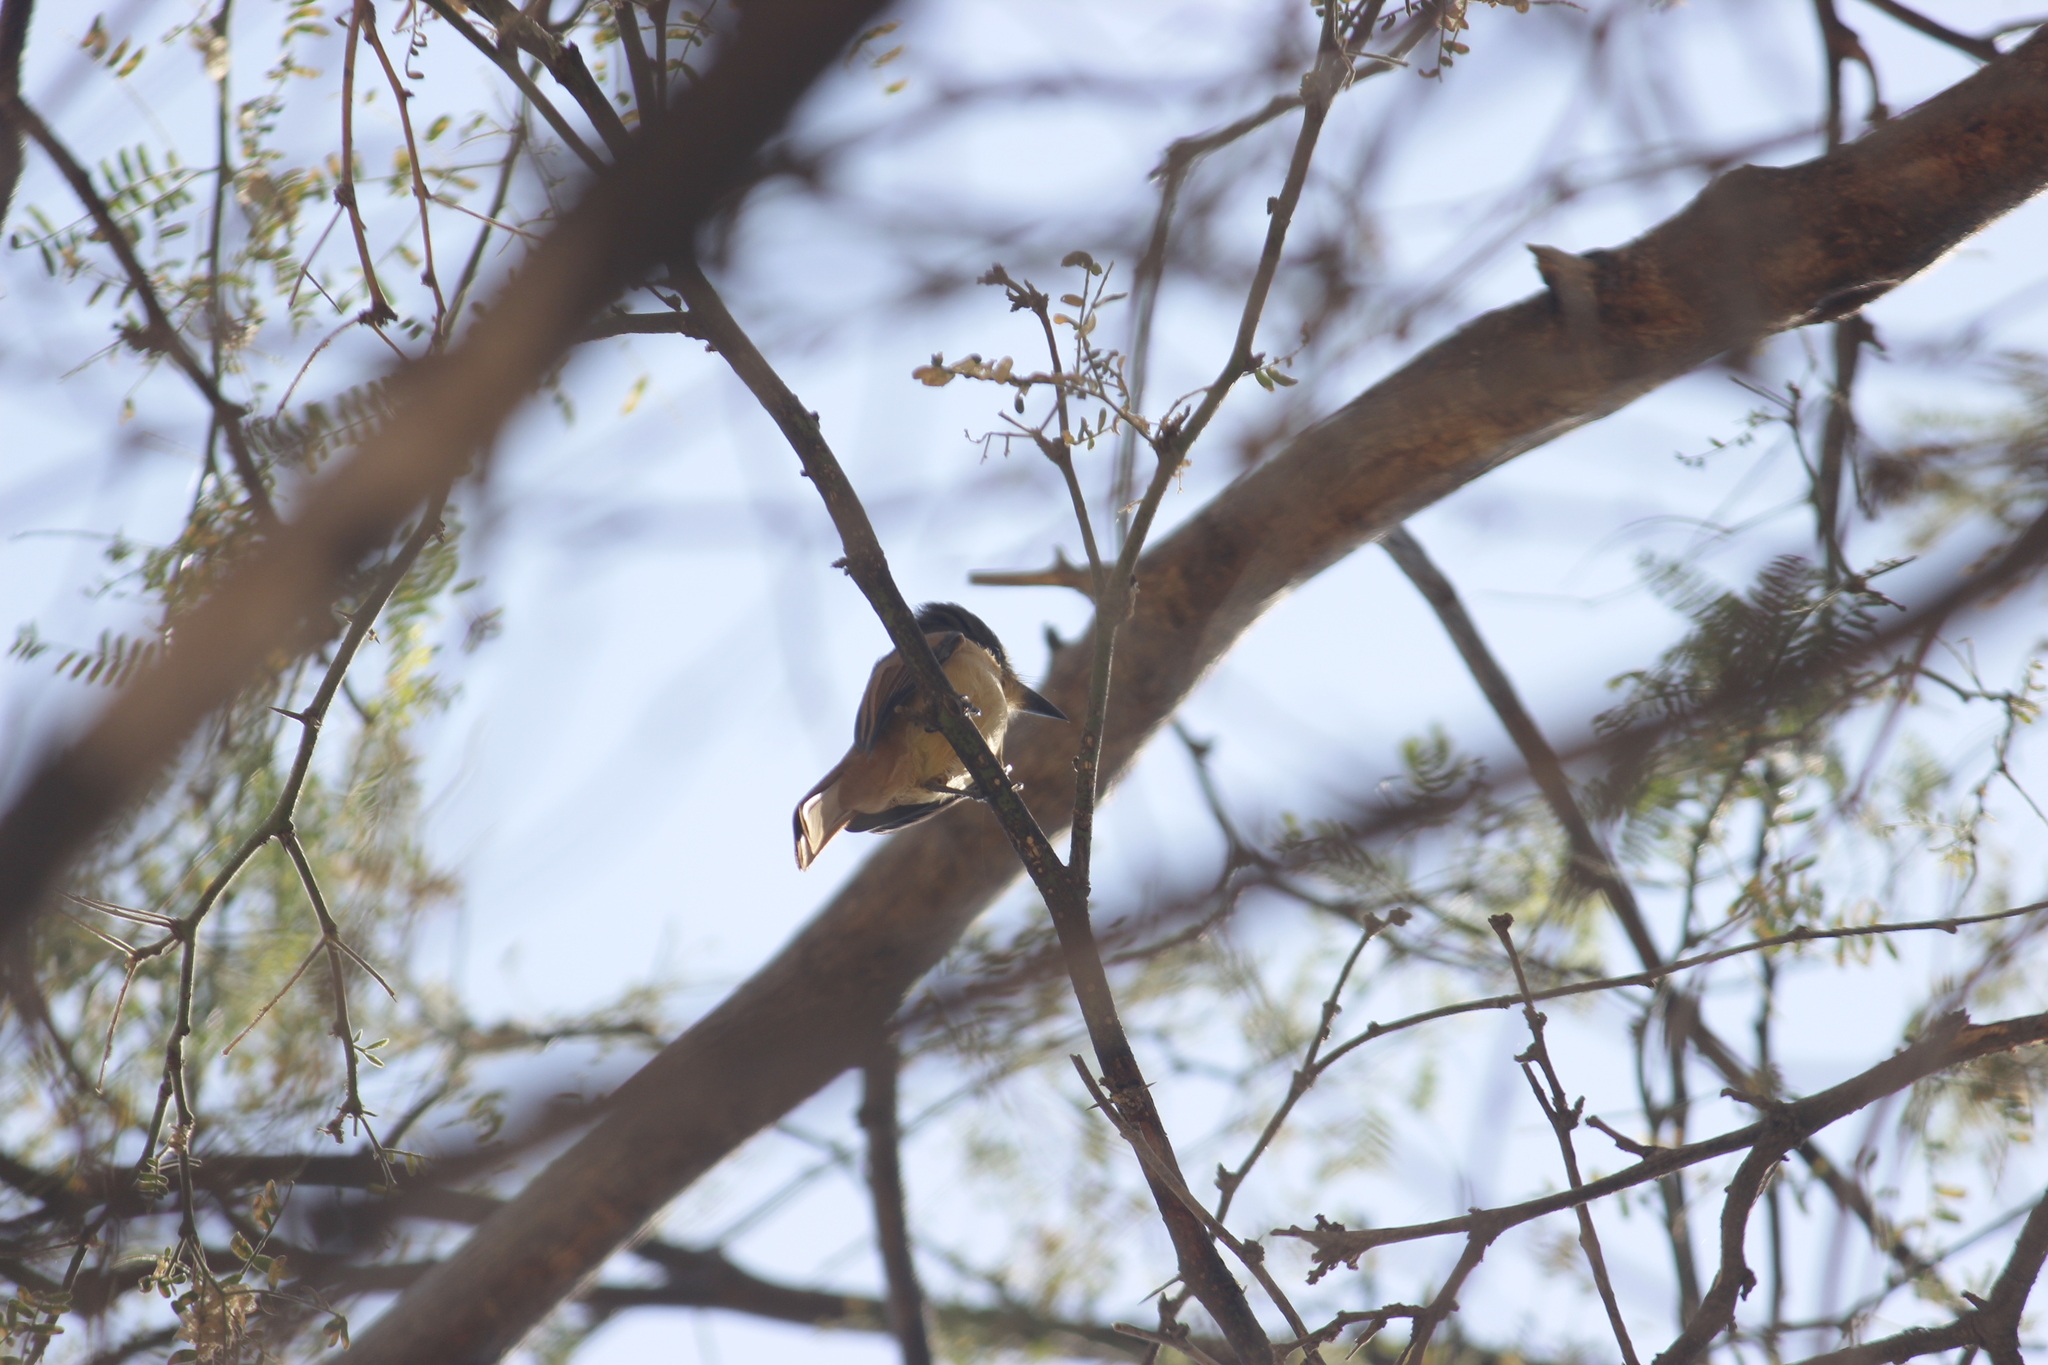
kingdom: Animalia
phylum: Chordata
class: Aves
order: Passeriformes
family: Tyrannidae
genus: Myiarchus
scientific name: Myiarchus semirufus
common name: Rufous flycatcher
